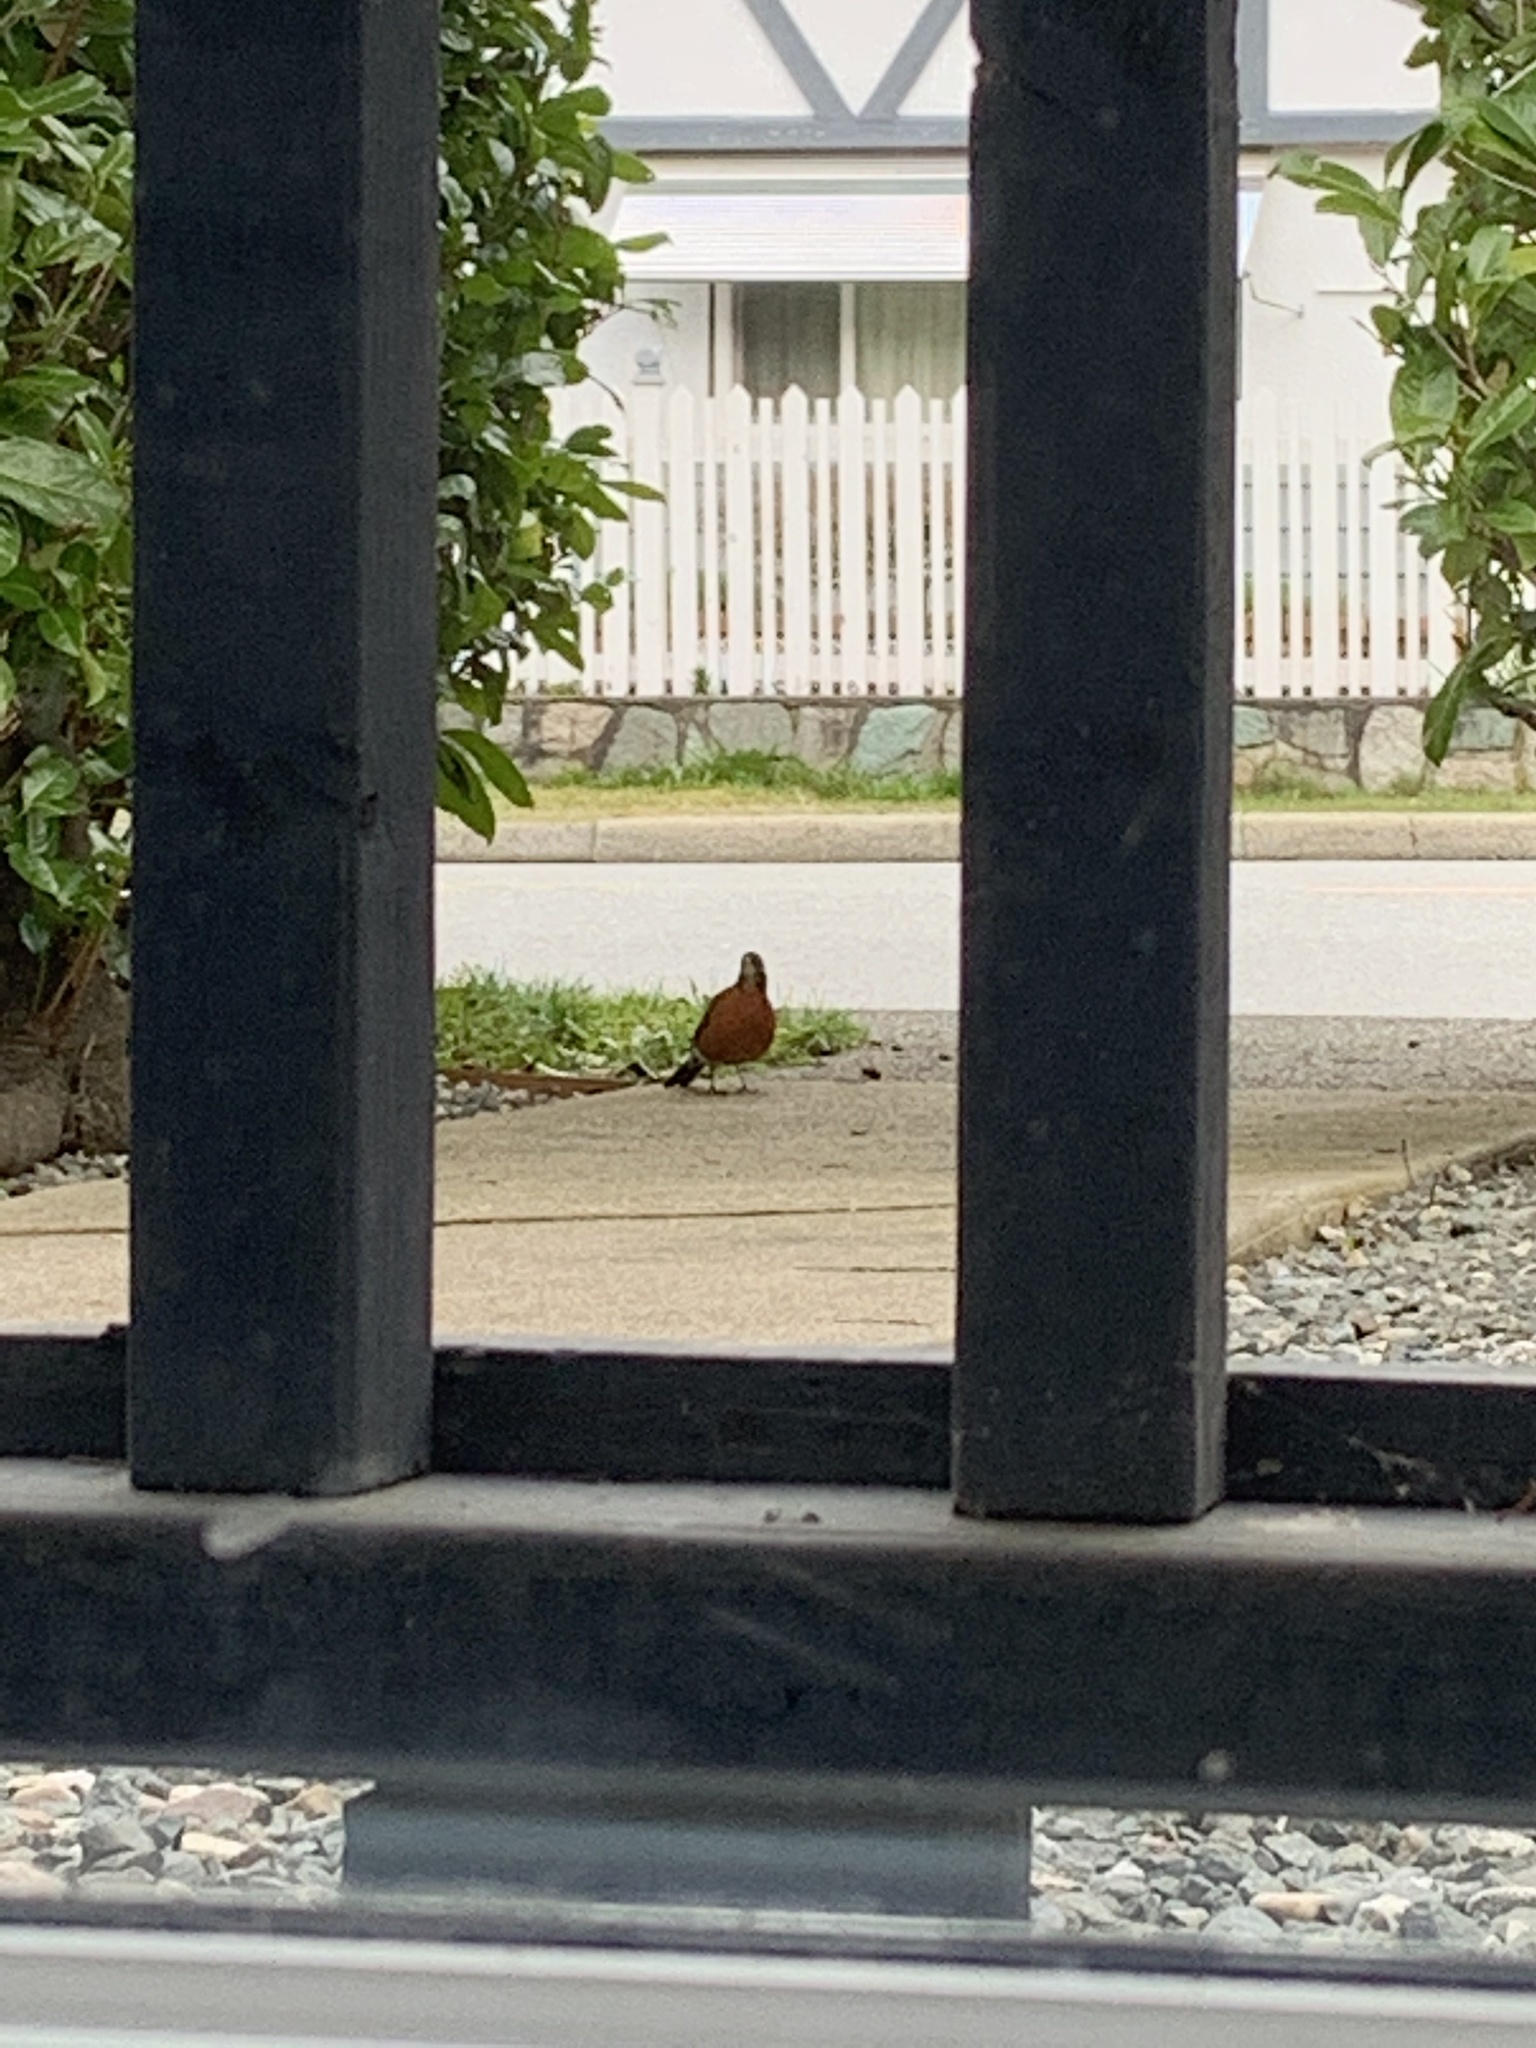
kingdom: Animalia
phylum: Chordata
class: Aves
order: Passeriformes
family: Turdidae
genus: Turdus
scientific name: Turdus migratorius
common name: American robin
